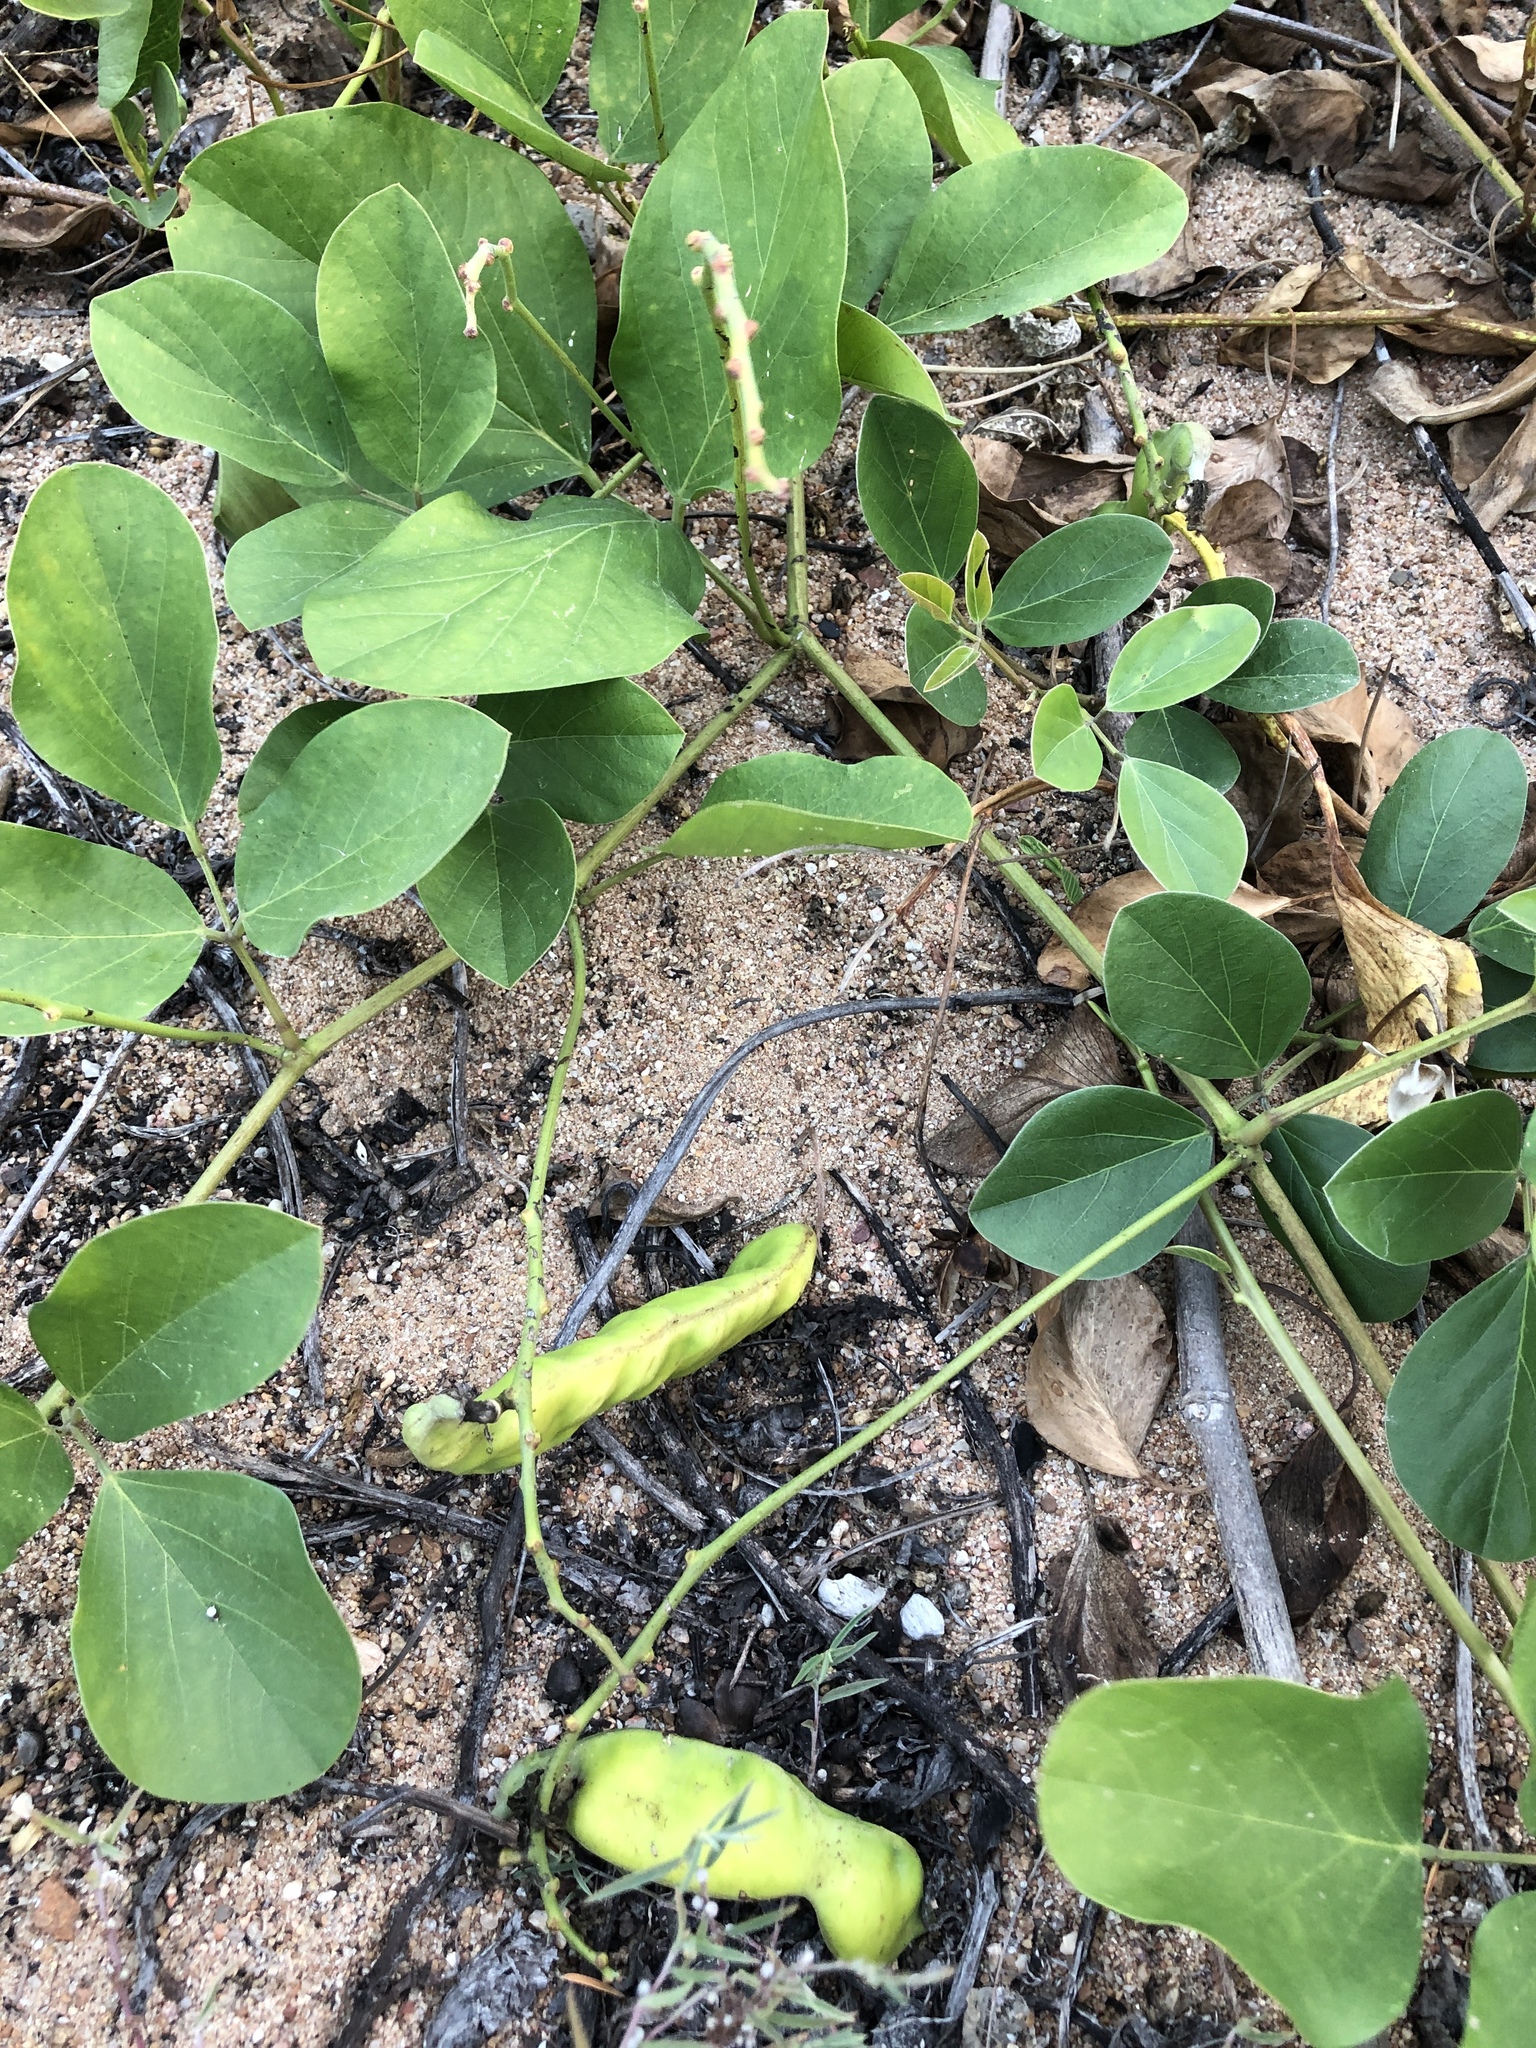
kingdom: Plantae
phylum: Tracheophyta
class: Magnoliopsida
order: Fabales
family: Fabaceae
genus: Canavalia
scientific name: Canavalia rosea
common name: Beach-bean
